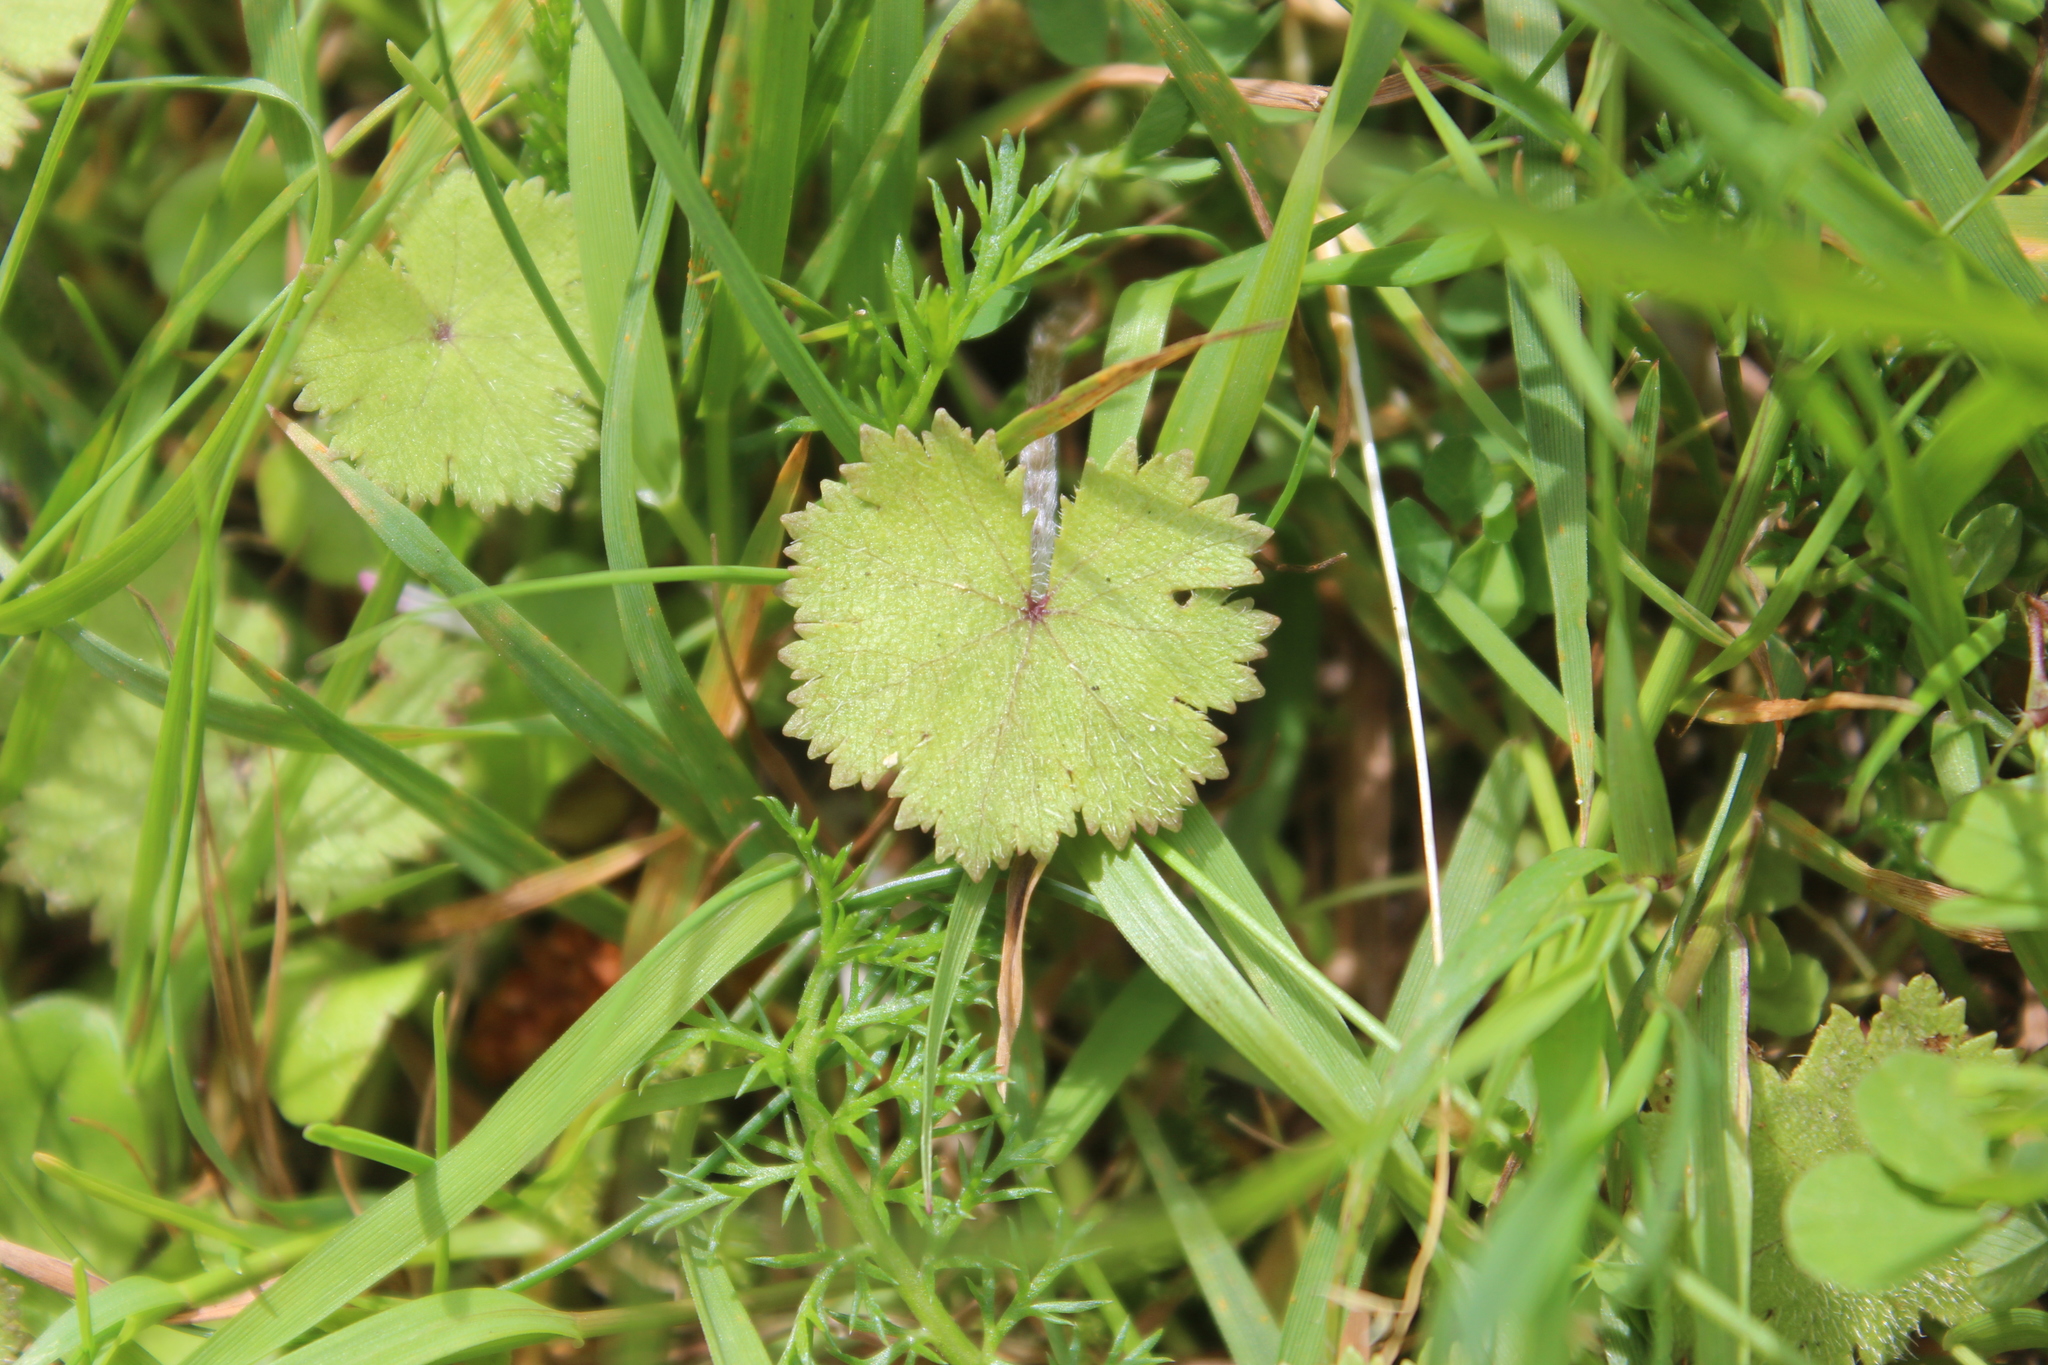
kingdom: Plantae
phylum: Tracheophyta
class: Magnoliopsida
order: Apiales
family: Araliaceae
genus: Hydrocotyle
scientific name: Hydrocotyle moschata
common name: Hairy pennywort
